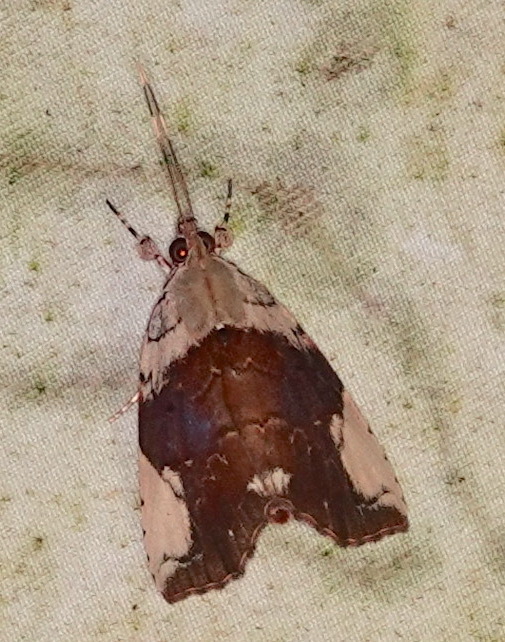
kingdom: Animalia
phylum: Arthropoda
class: Insecta
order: Lepidoptera
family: Nolidae
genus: Plectothripa
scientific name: Plectothripa excisa
